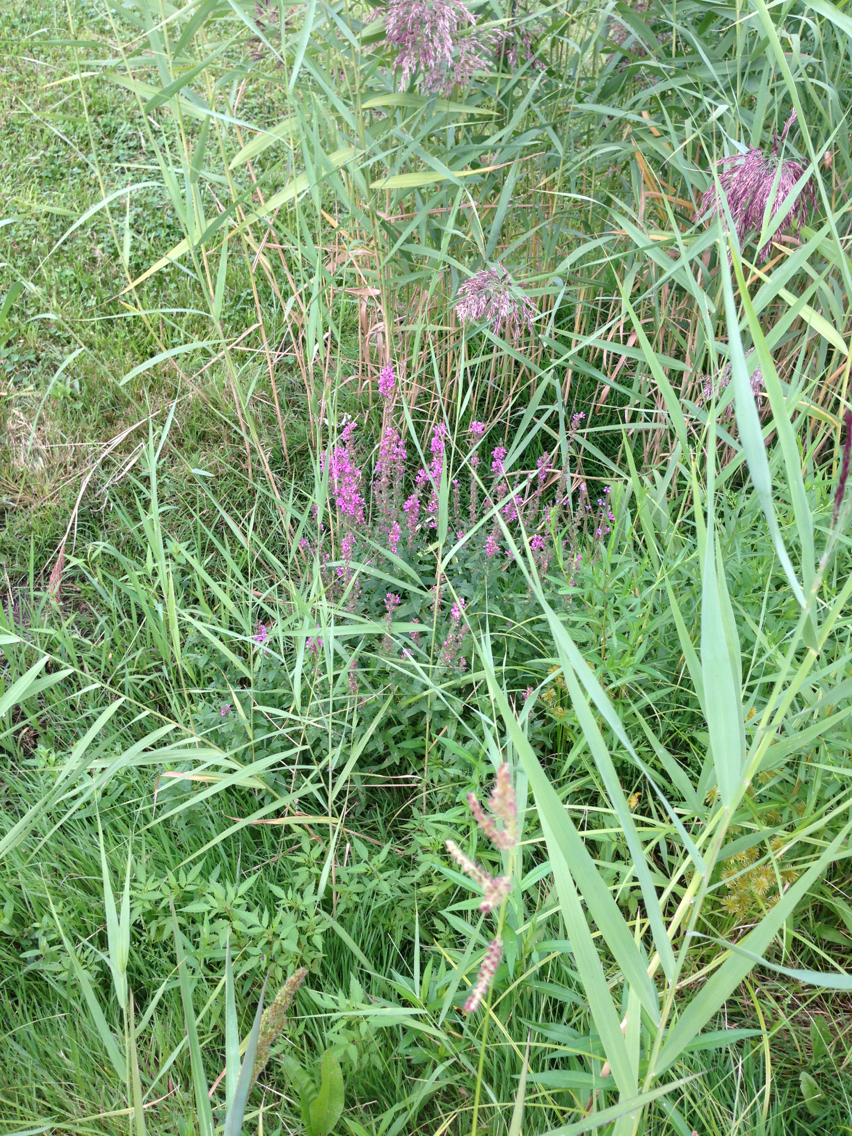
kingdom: Plantae
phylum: Tracheophyta
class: Magnoliopsida
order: Myrtales
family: Lythraceae
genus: Lythrum
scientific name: Lythrum salicaria
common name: Purple loosestrife
